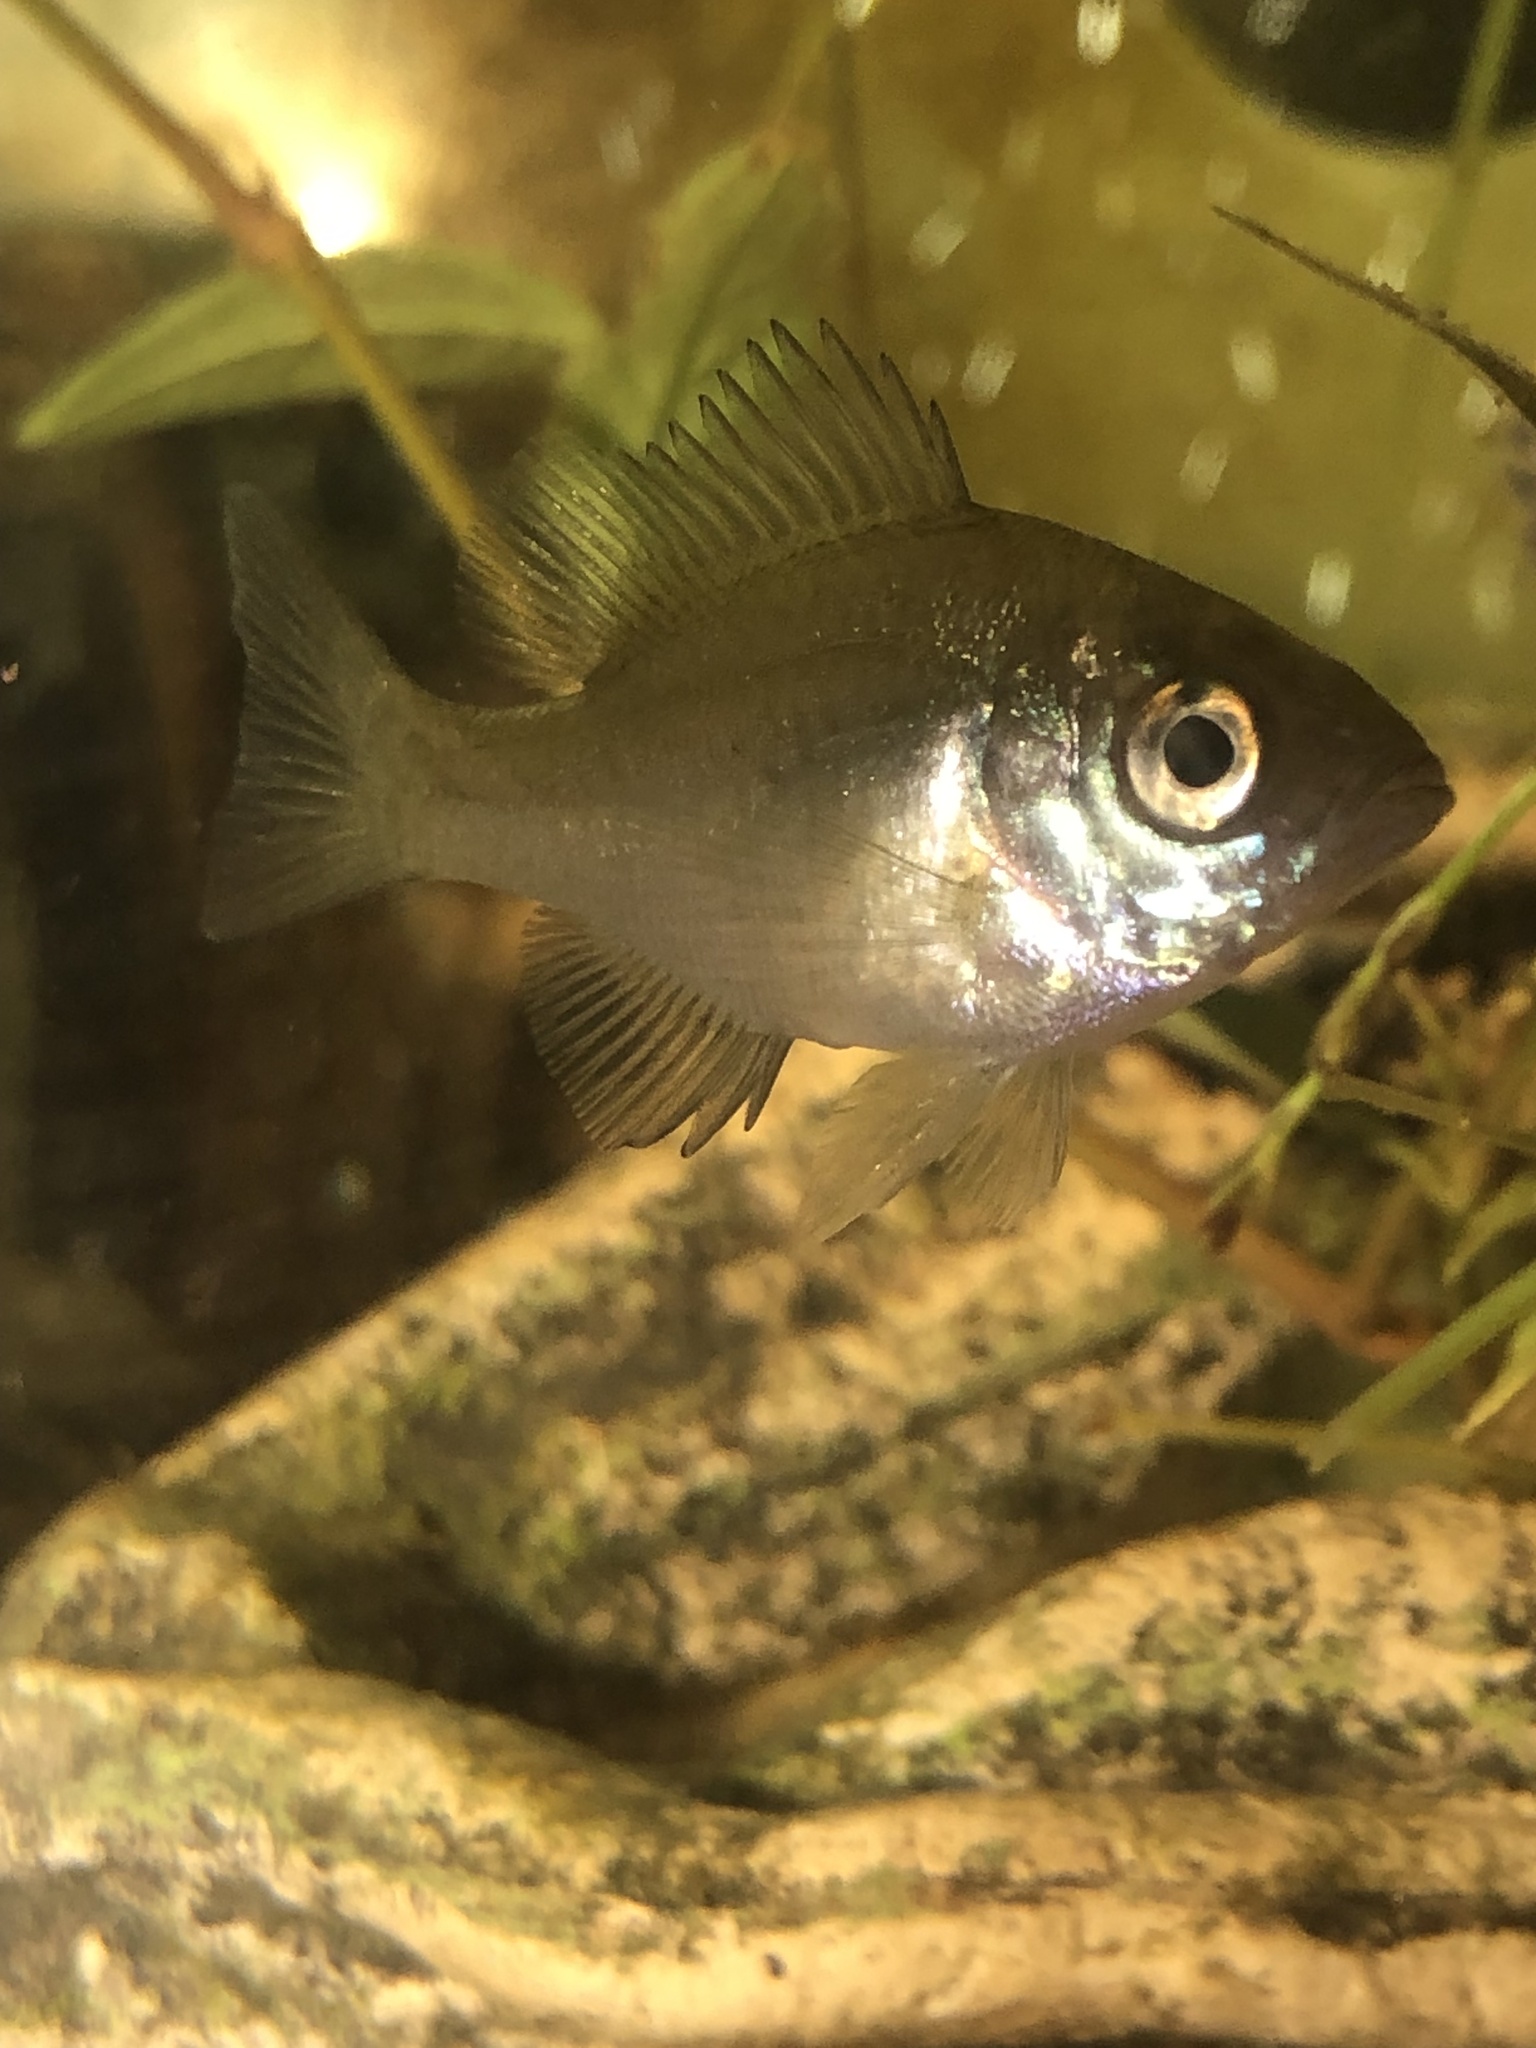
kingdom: Animalia
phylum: Chordata
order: Perciformes
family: Centrarchidae
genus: Lepomis
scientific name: Lepomis macrochirus
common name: Bluegill
